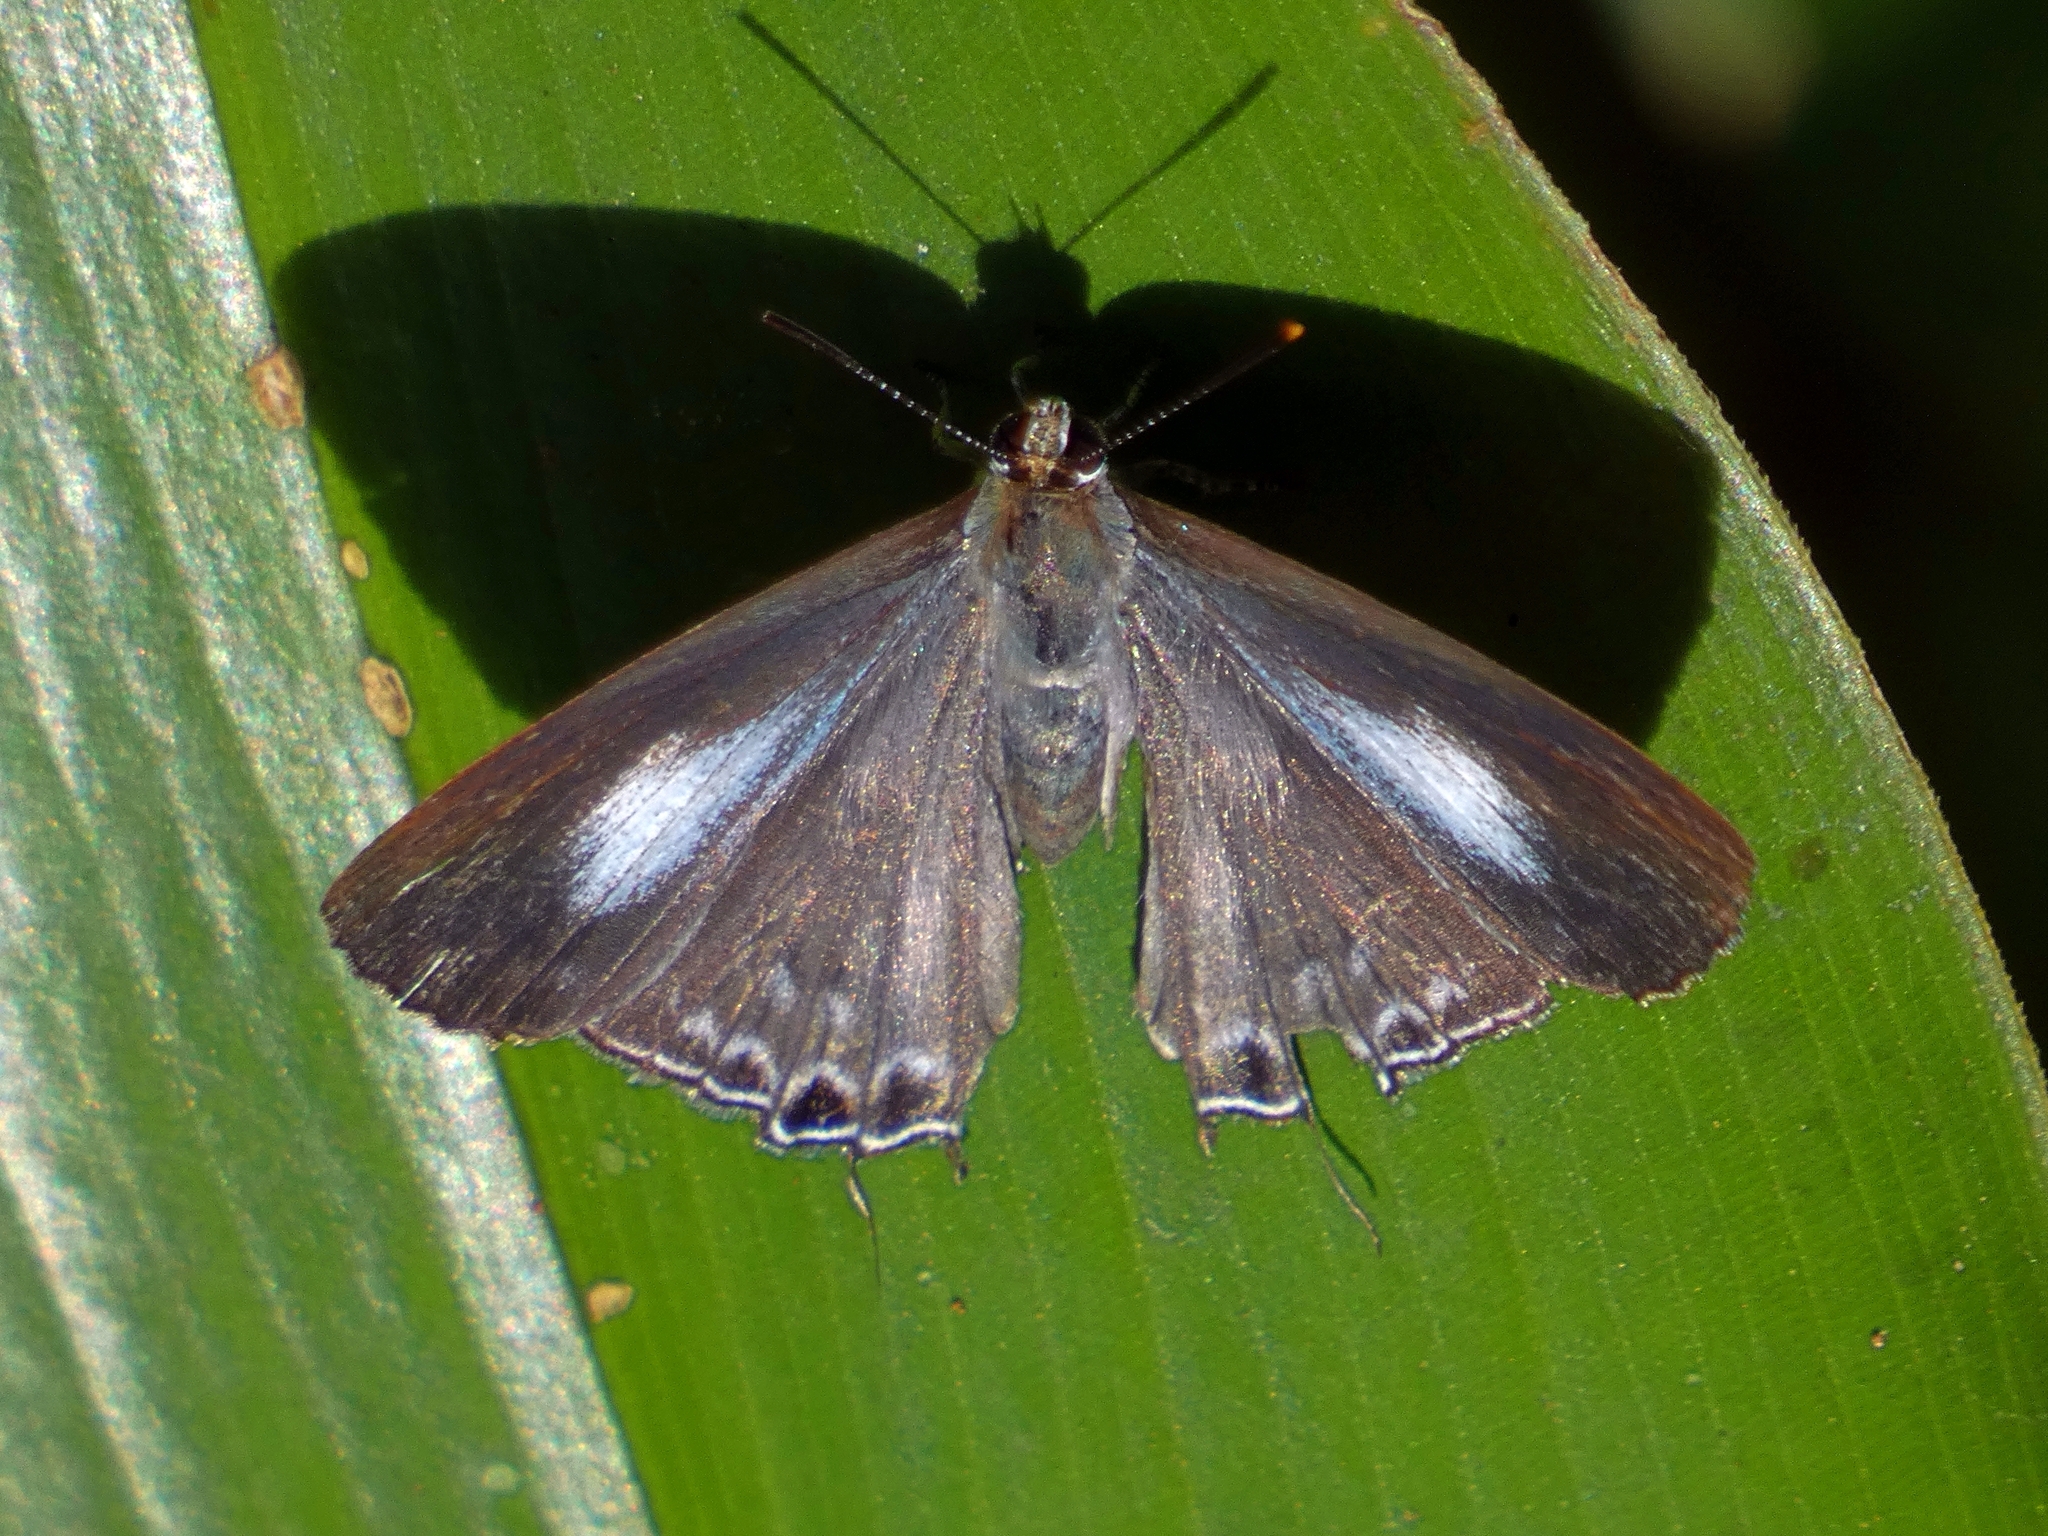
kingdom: Animalia
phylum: Arthropoda
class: Insecta
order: Lepidoptera
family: Lycaenidae
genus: Hypolycaena
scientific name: Hypolycaena phorbas
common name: Black-spotted flash
